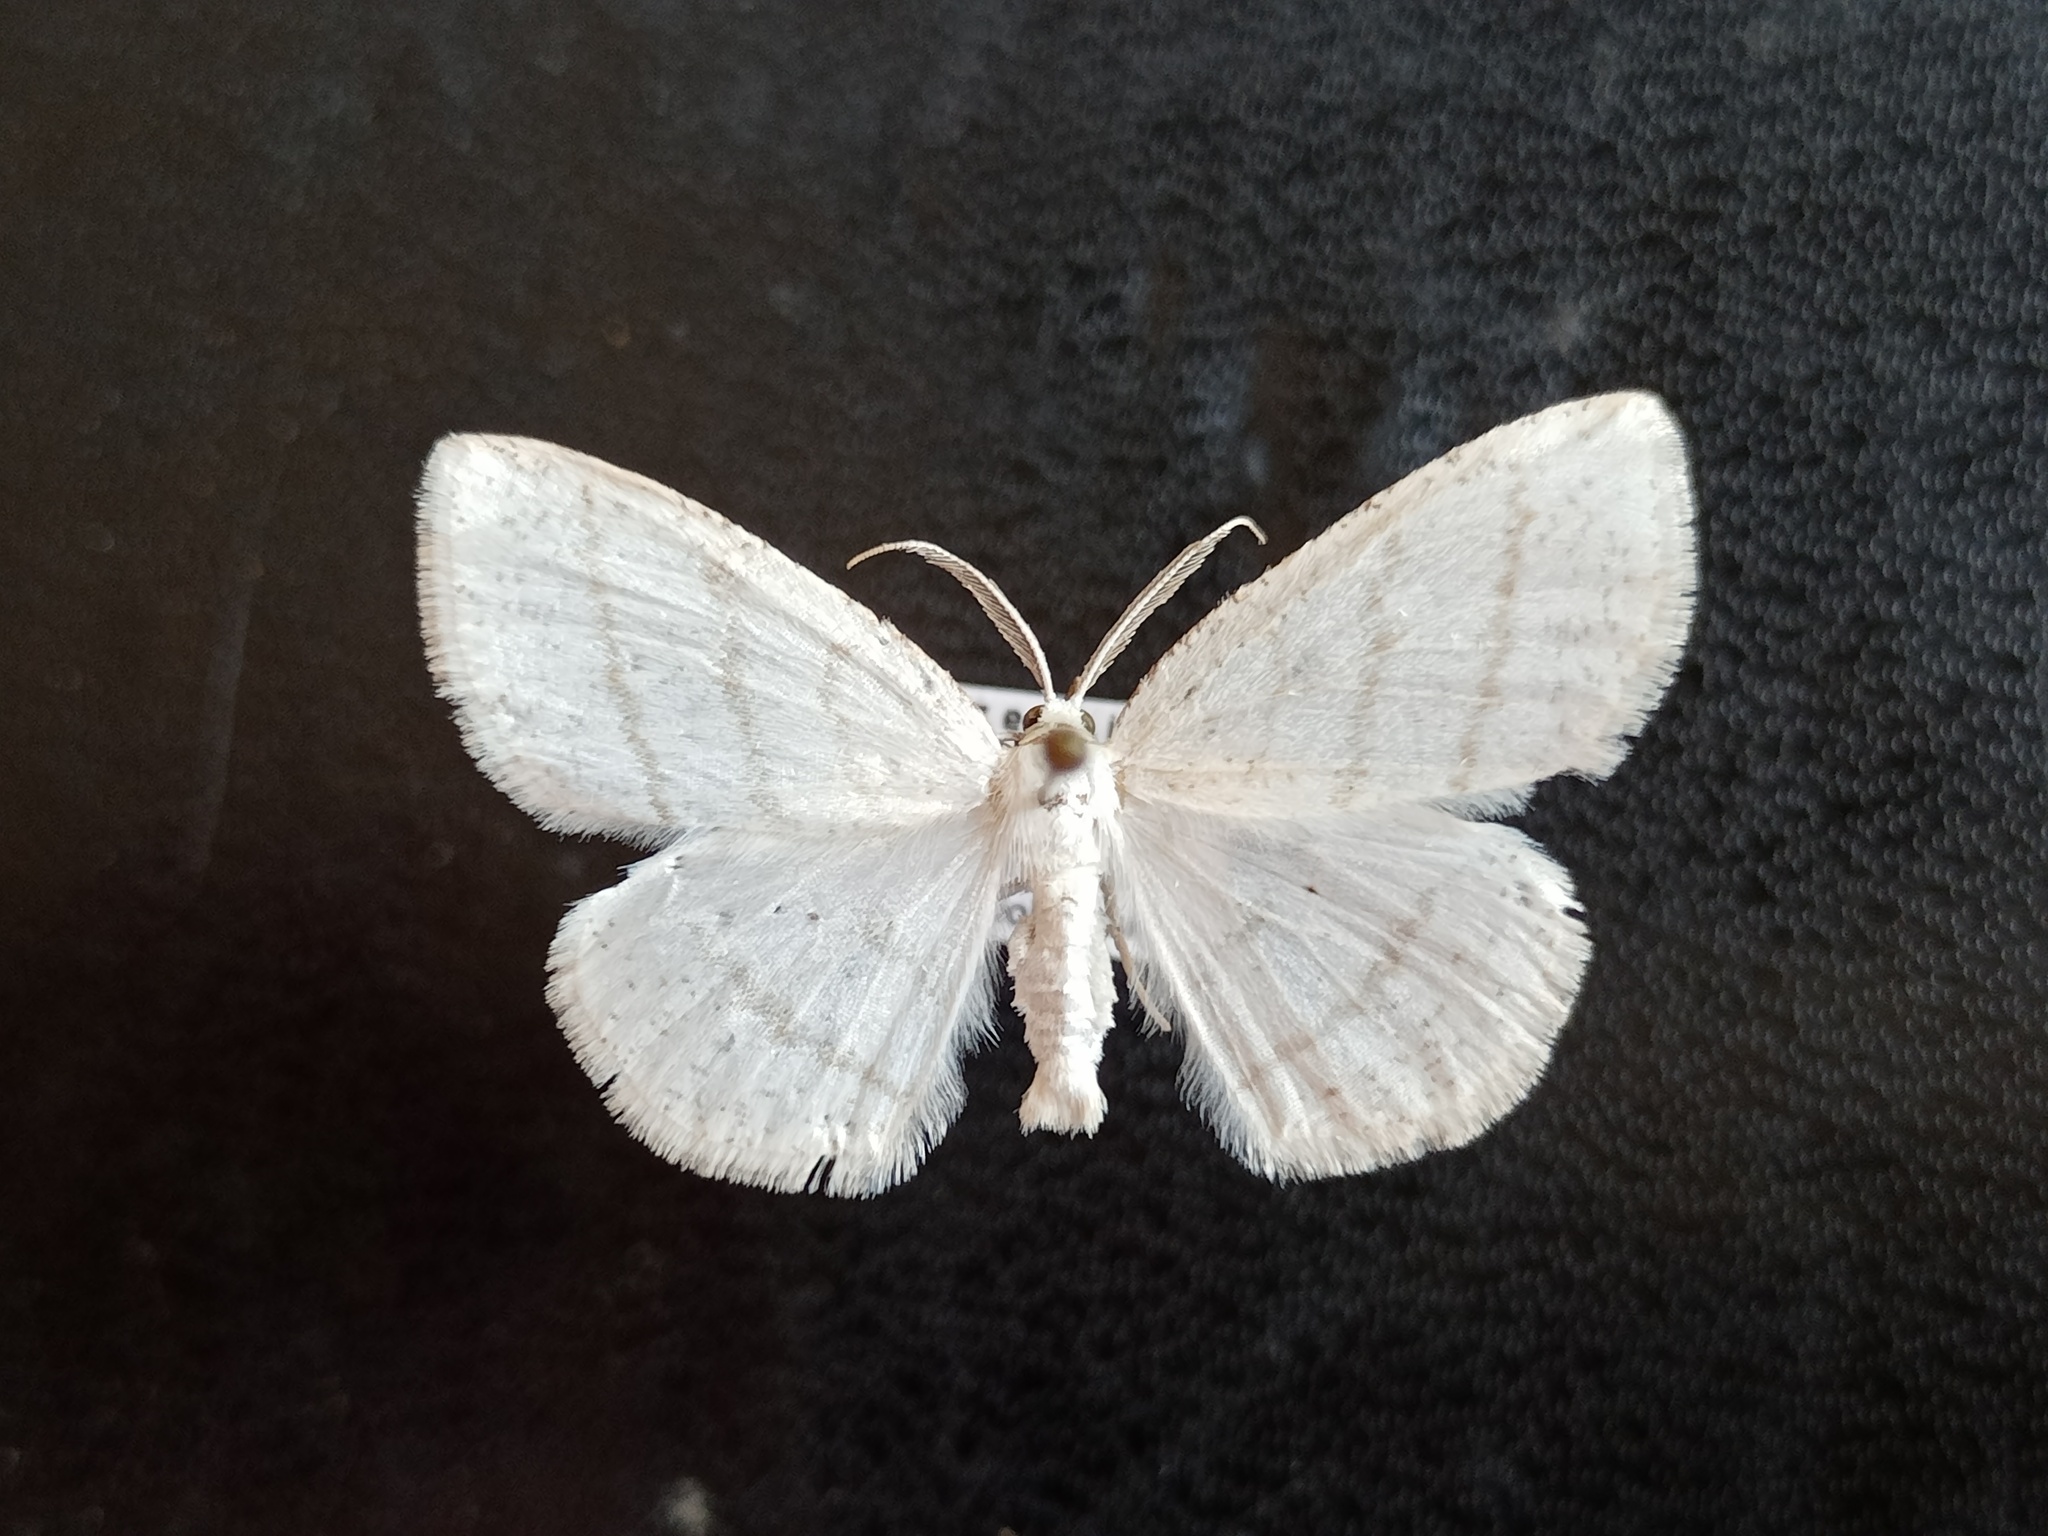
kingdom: Animalia
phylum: Arthropoda
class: Insecta
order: Lepidoptera
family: Geometridae
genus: Cabera
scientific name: Cabera pusaria
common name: Common white wave
